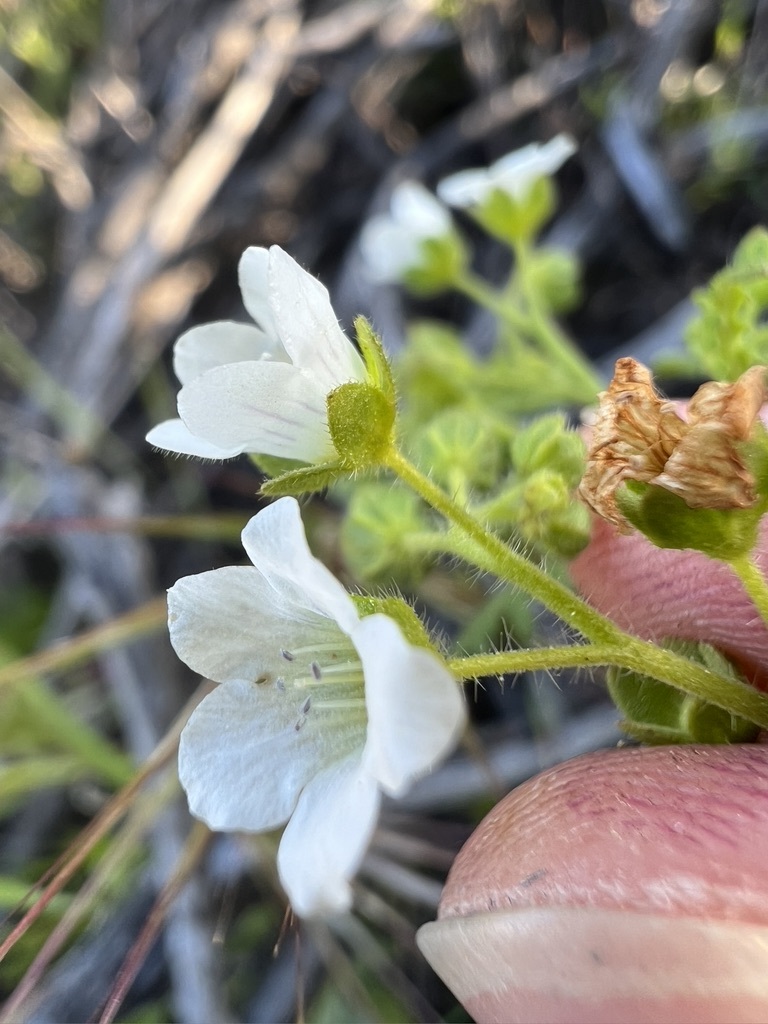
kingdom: Plantae
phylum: Tracheophyta
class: Magnoliopsida
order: Boraginales
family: Hydrophyllaceae
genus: Eucrypta
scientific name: Eucrypta chrysanthemifolia
